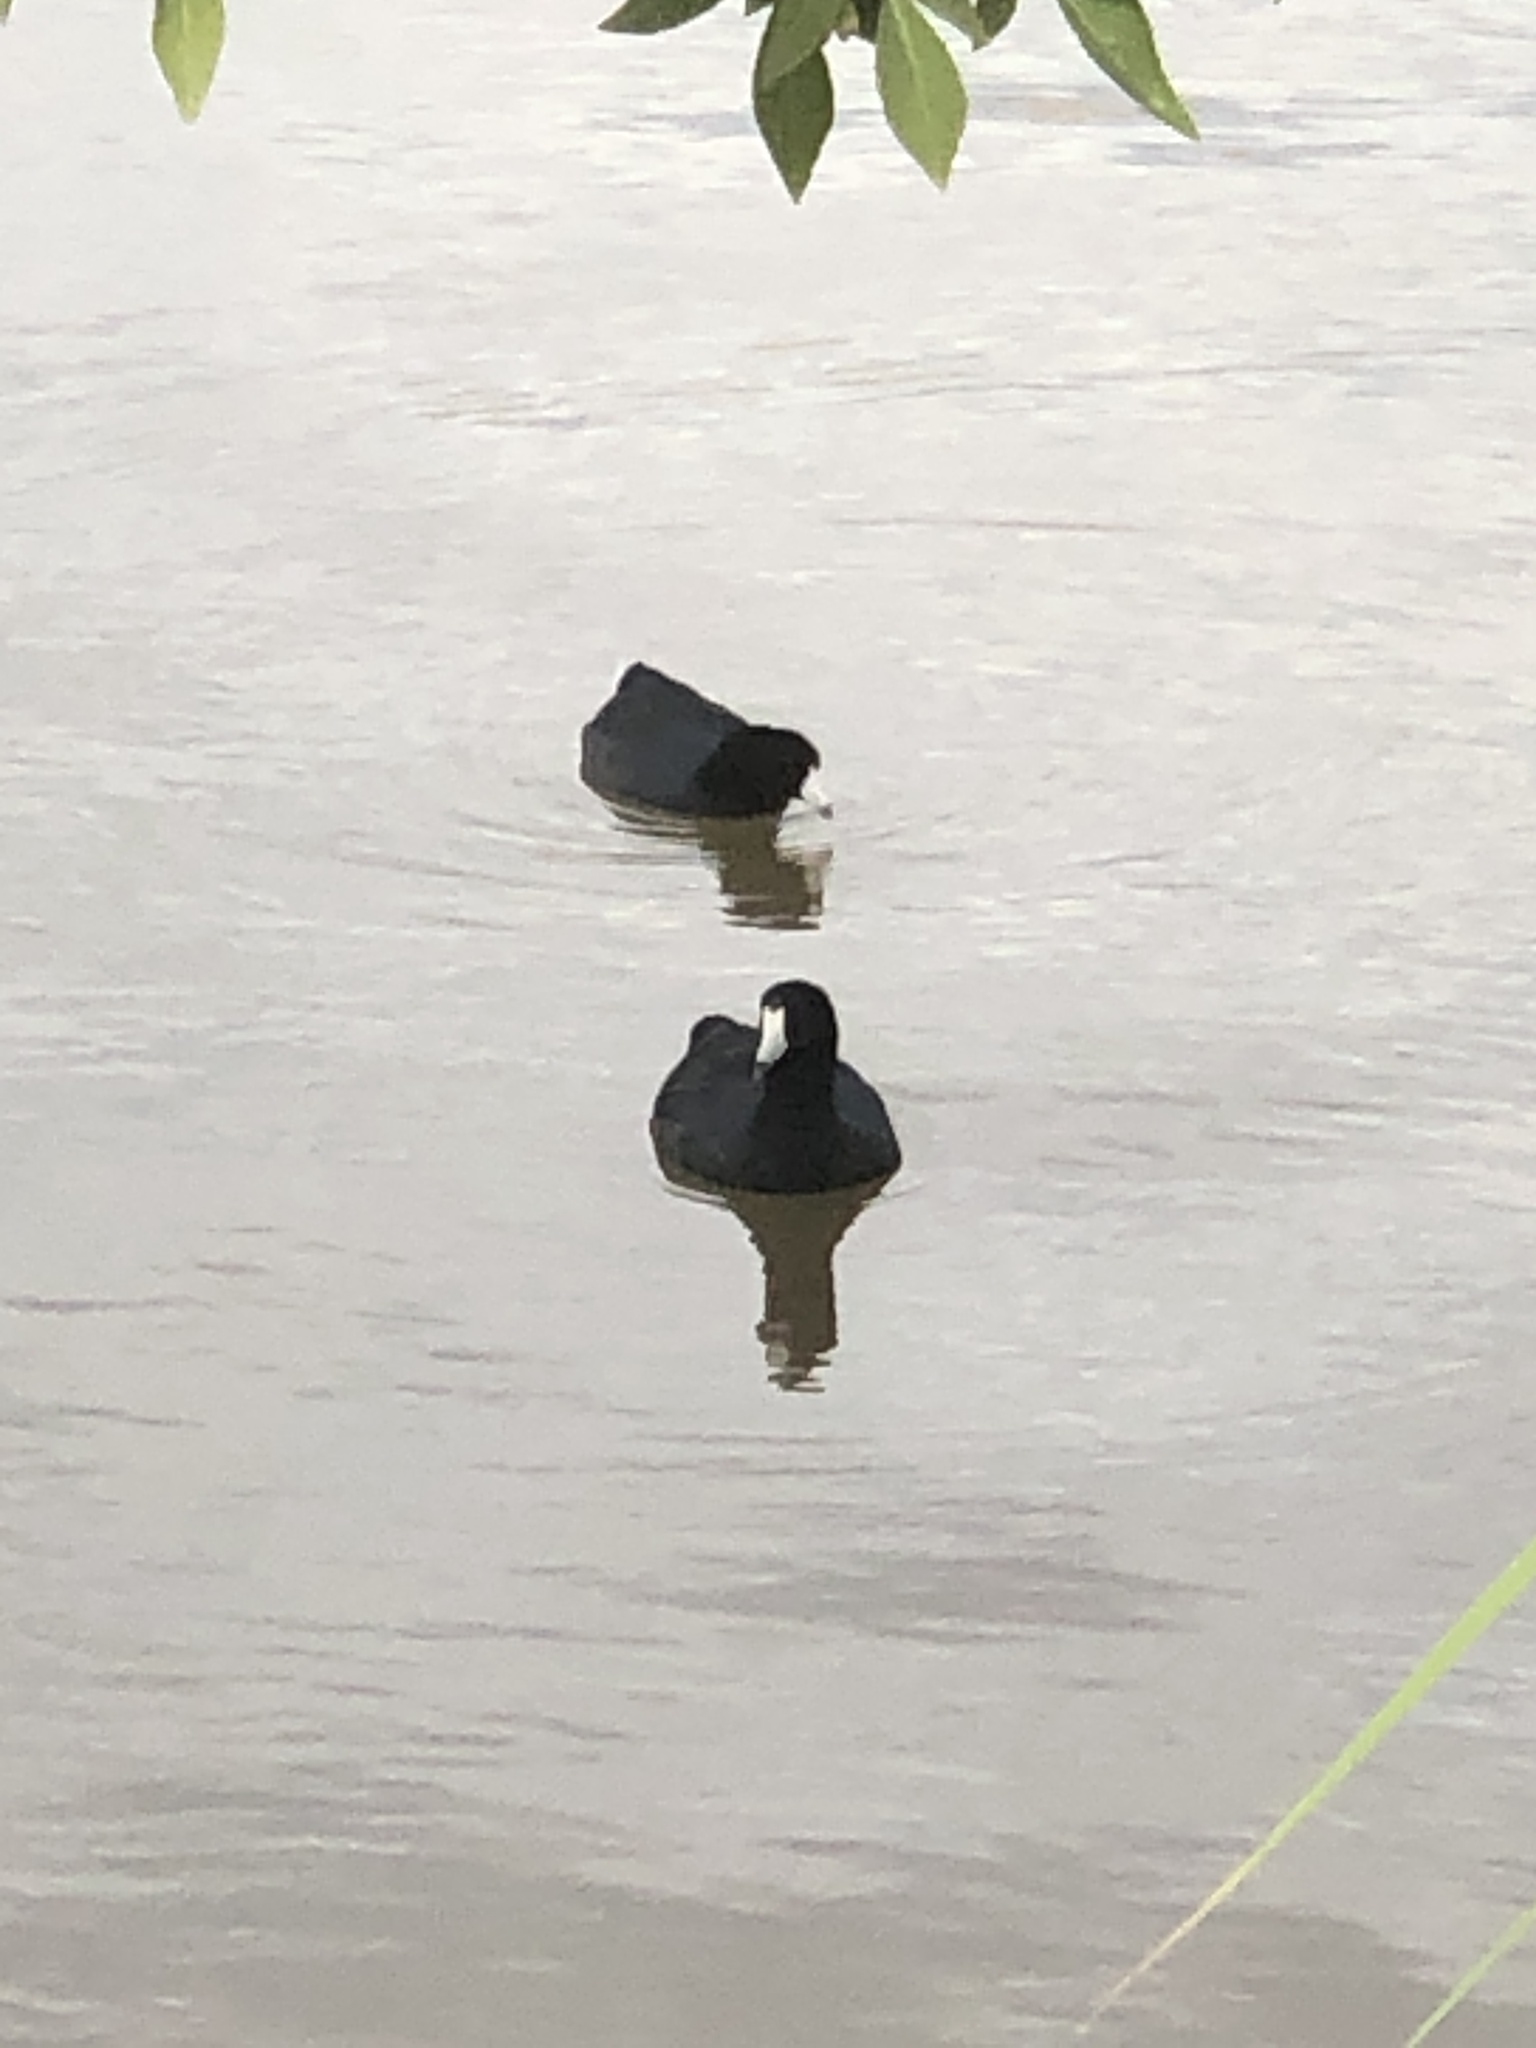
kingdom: Animalia
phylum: Chordata
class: Aves
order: Gruiformes
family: Rallidae
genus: Fulica
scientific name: Fulica americana
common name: American coot
